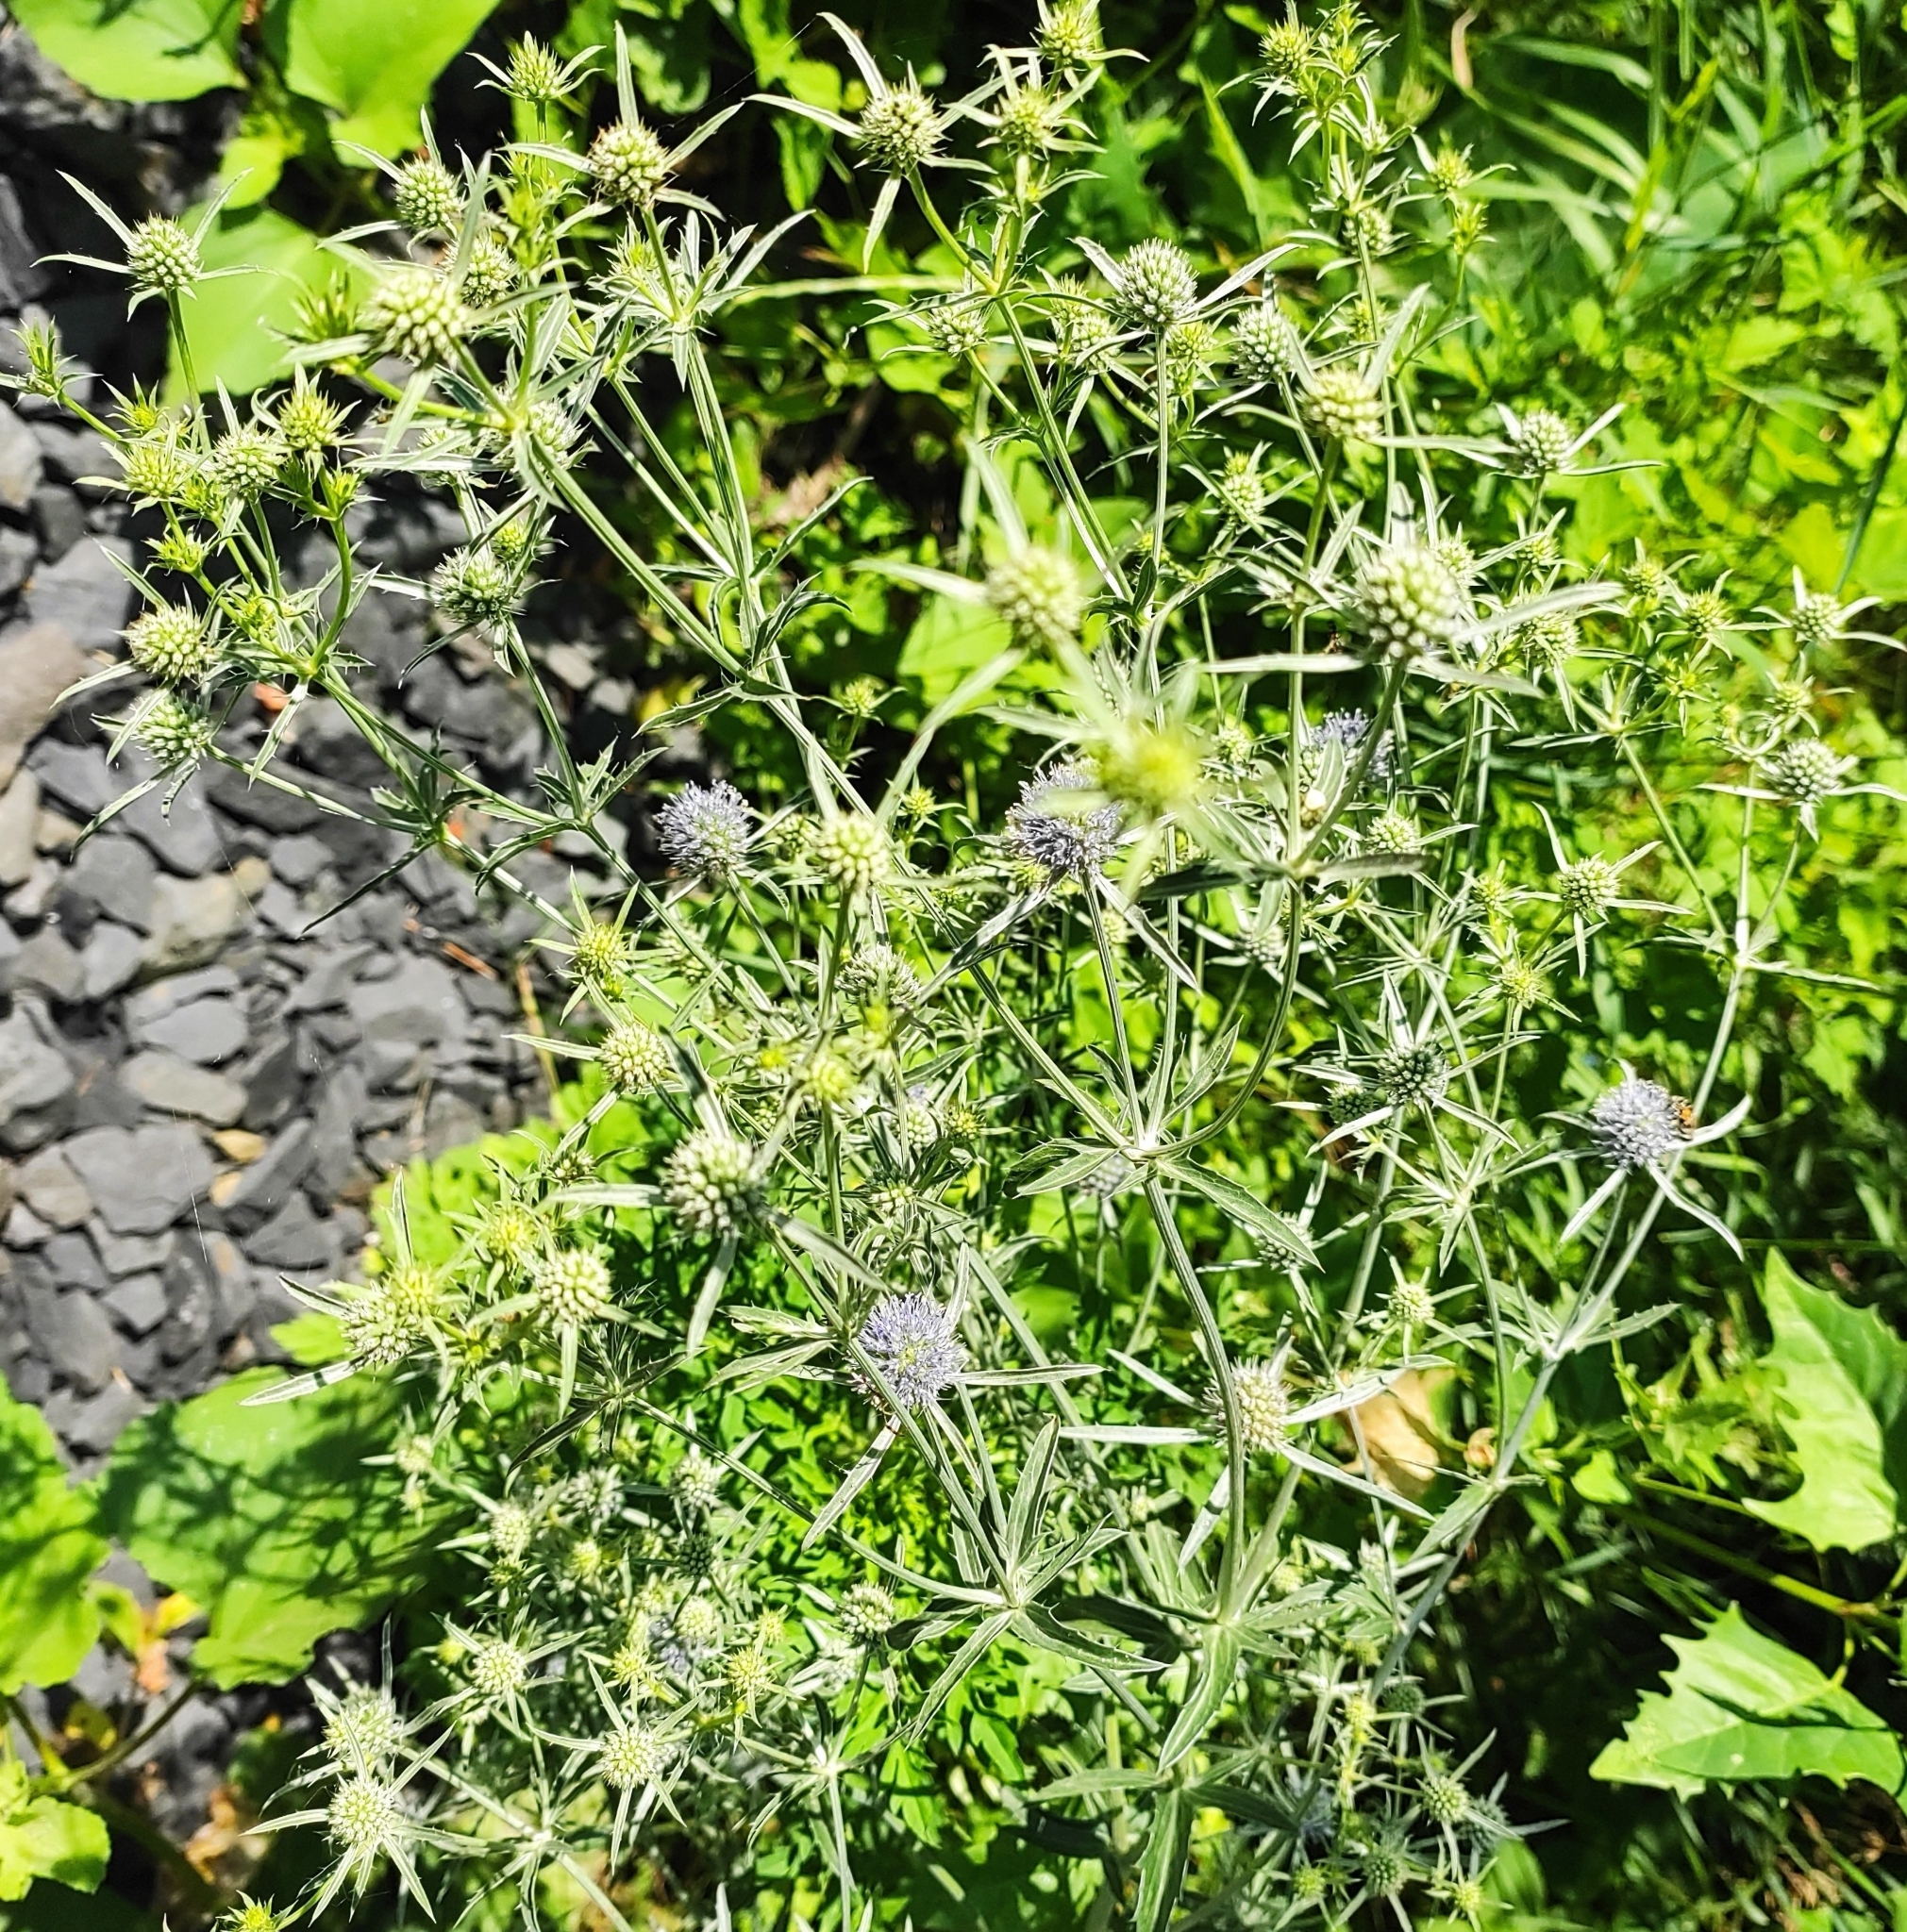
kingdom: Plantae
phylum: Tracheophyta
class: Magnoliopsida
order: Apiales
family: Apiaceae
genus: Eryngium
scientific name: Eryngium planum
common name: Blue eryngo
